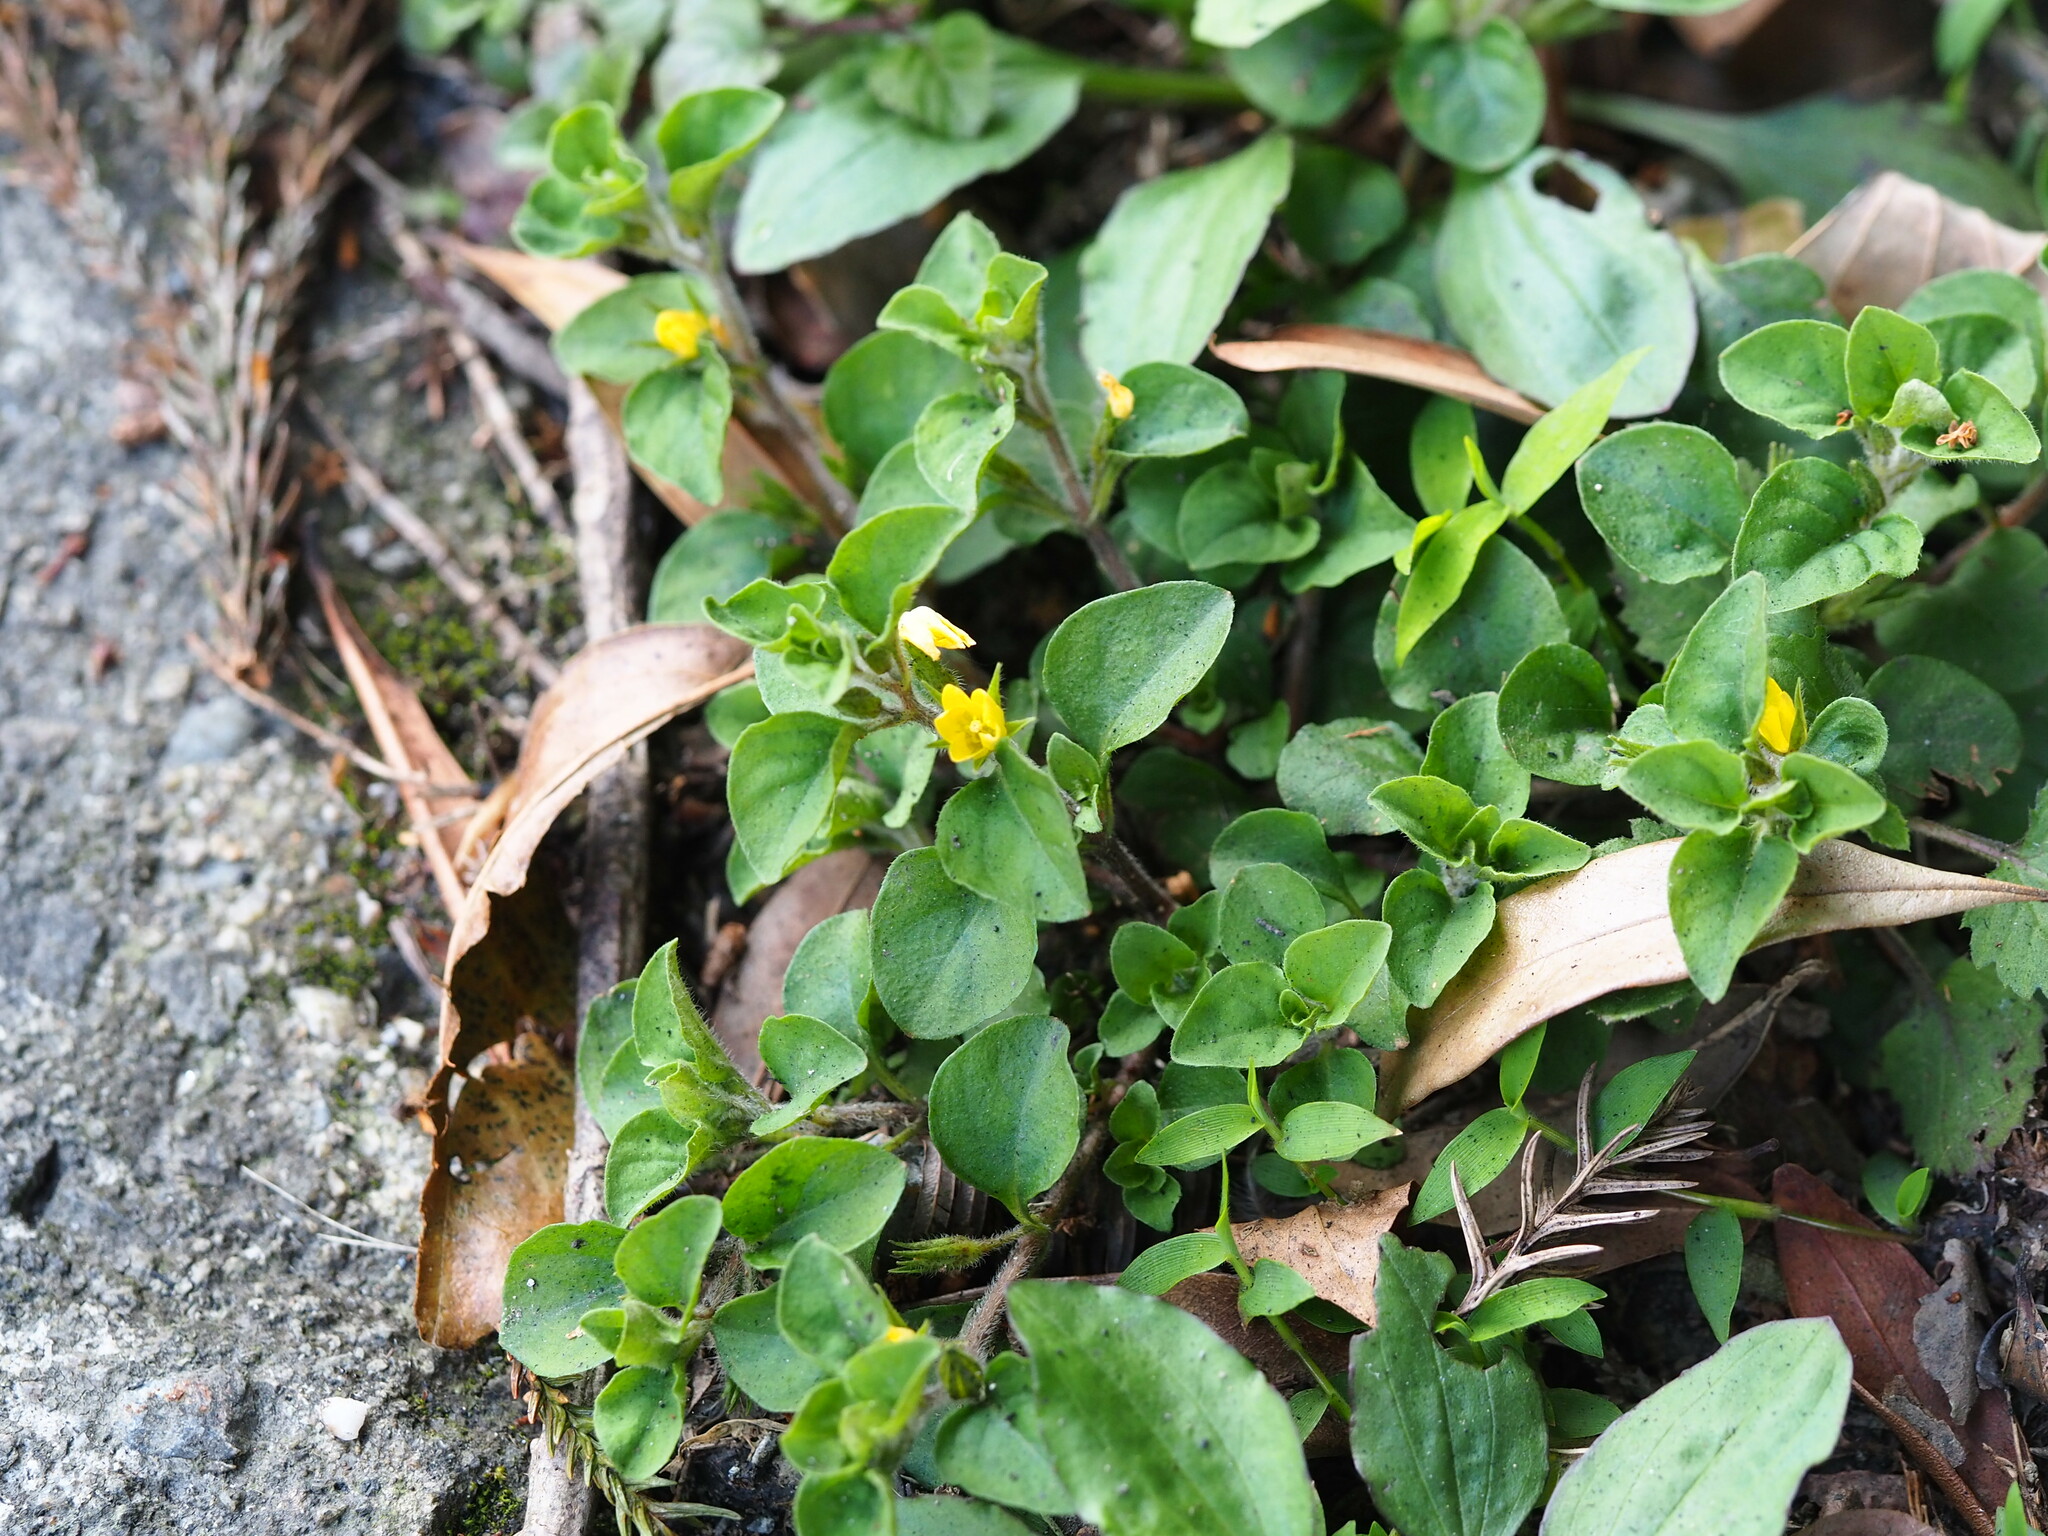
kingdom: Plantae
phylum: Tracheophyta
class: Magnoliopsida
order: Ericales
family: Primulaceae
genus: Lysimachia
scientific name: Lysimachia japonica
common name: Japanese yellow loosestrife
